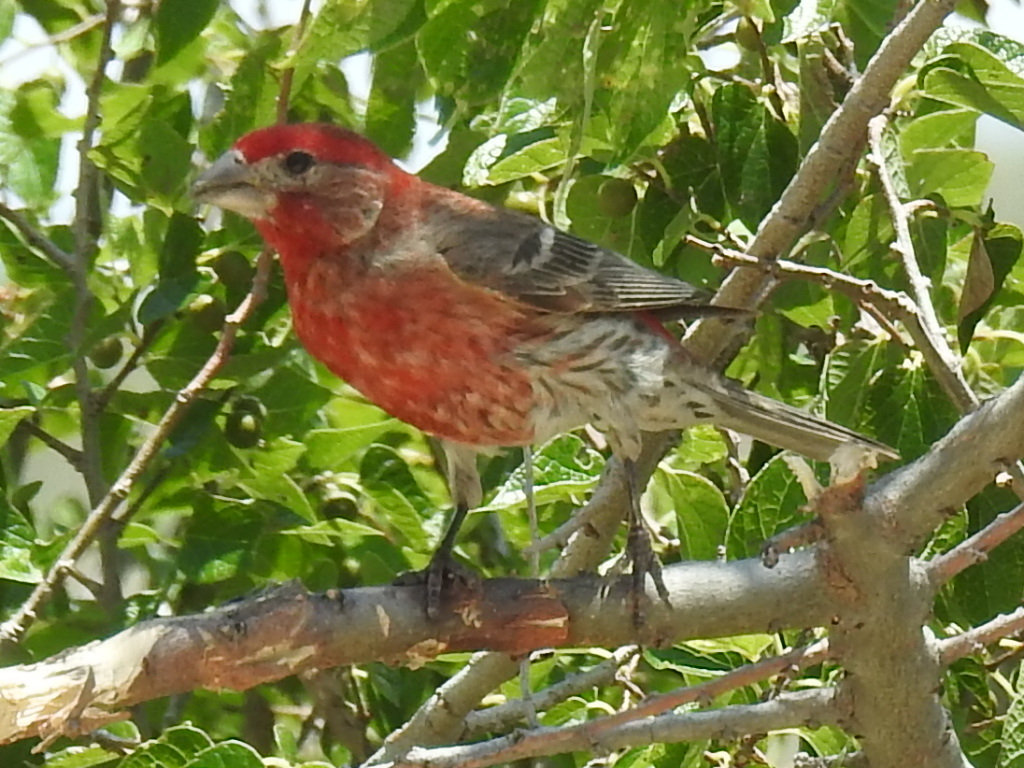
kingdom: Animalia
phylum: Chordata
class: Aves
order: Passeriformes
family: Fringillidae
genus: Haemorhous
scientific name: Haemorhous mexicanus
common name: House finch
